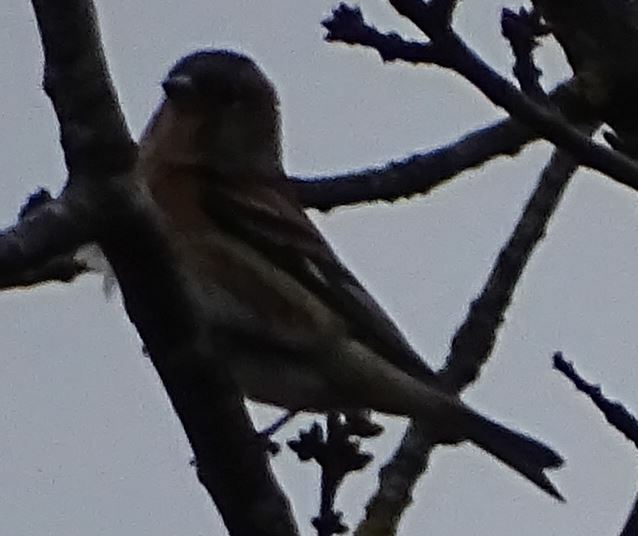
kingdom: Animalia
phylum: Chordata
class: Aves
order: Passeriformes
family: Fringillidae
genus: Fringilla
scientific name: Fringilla montifringilla
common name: Brambling
